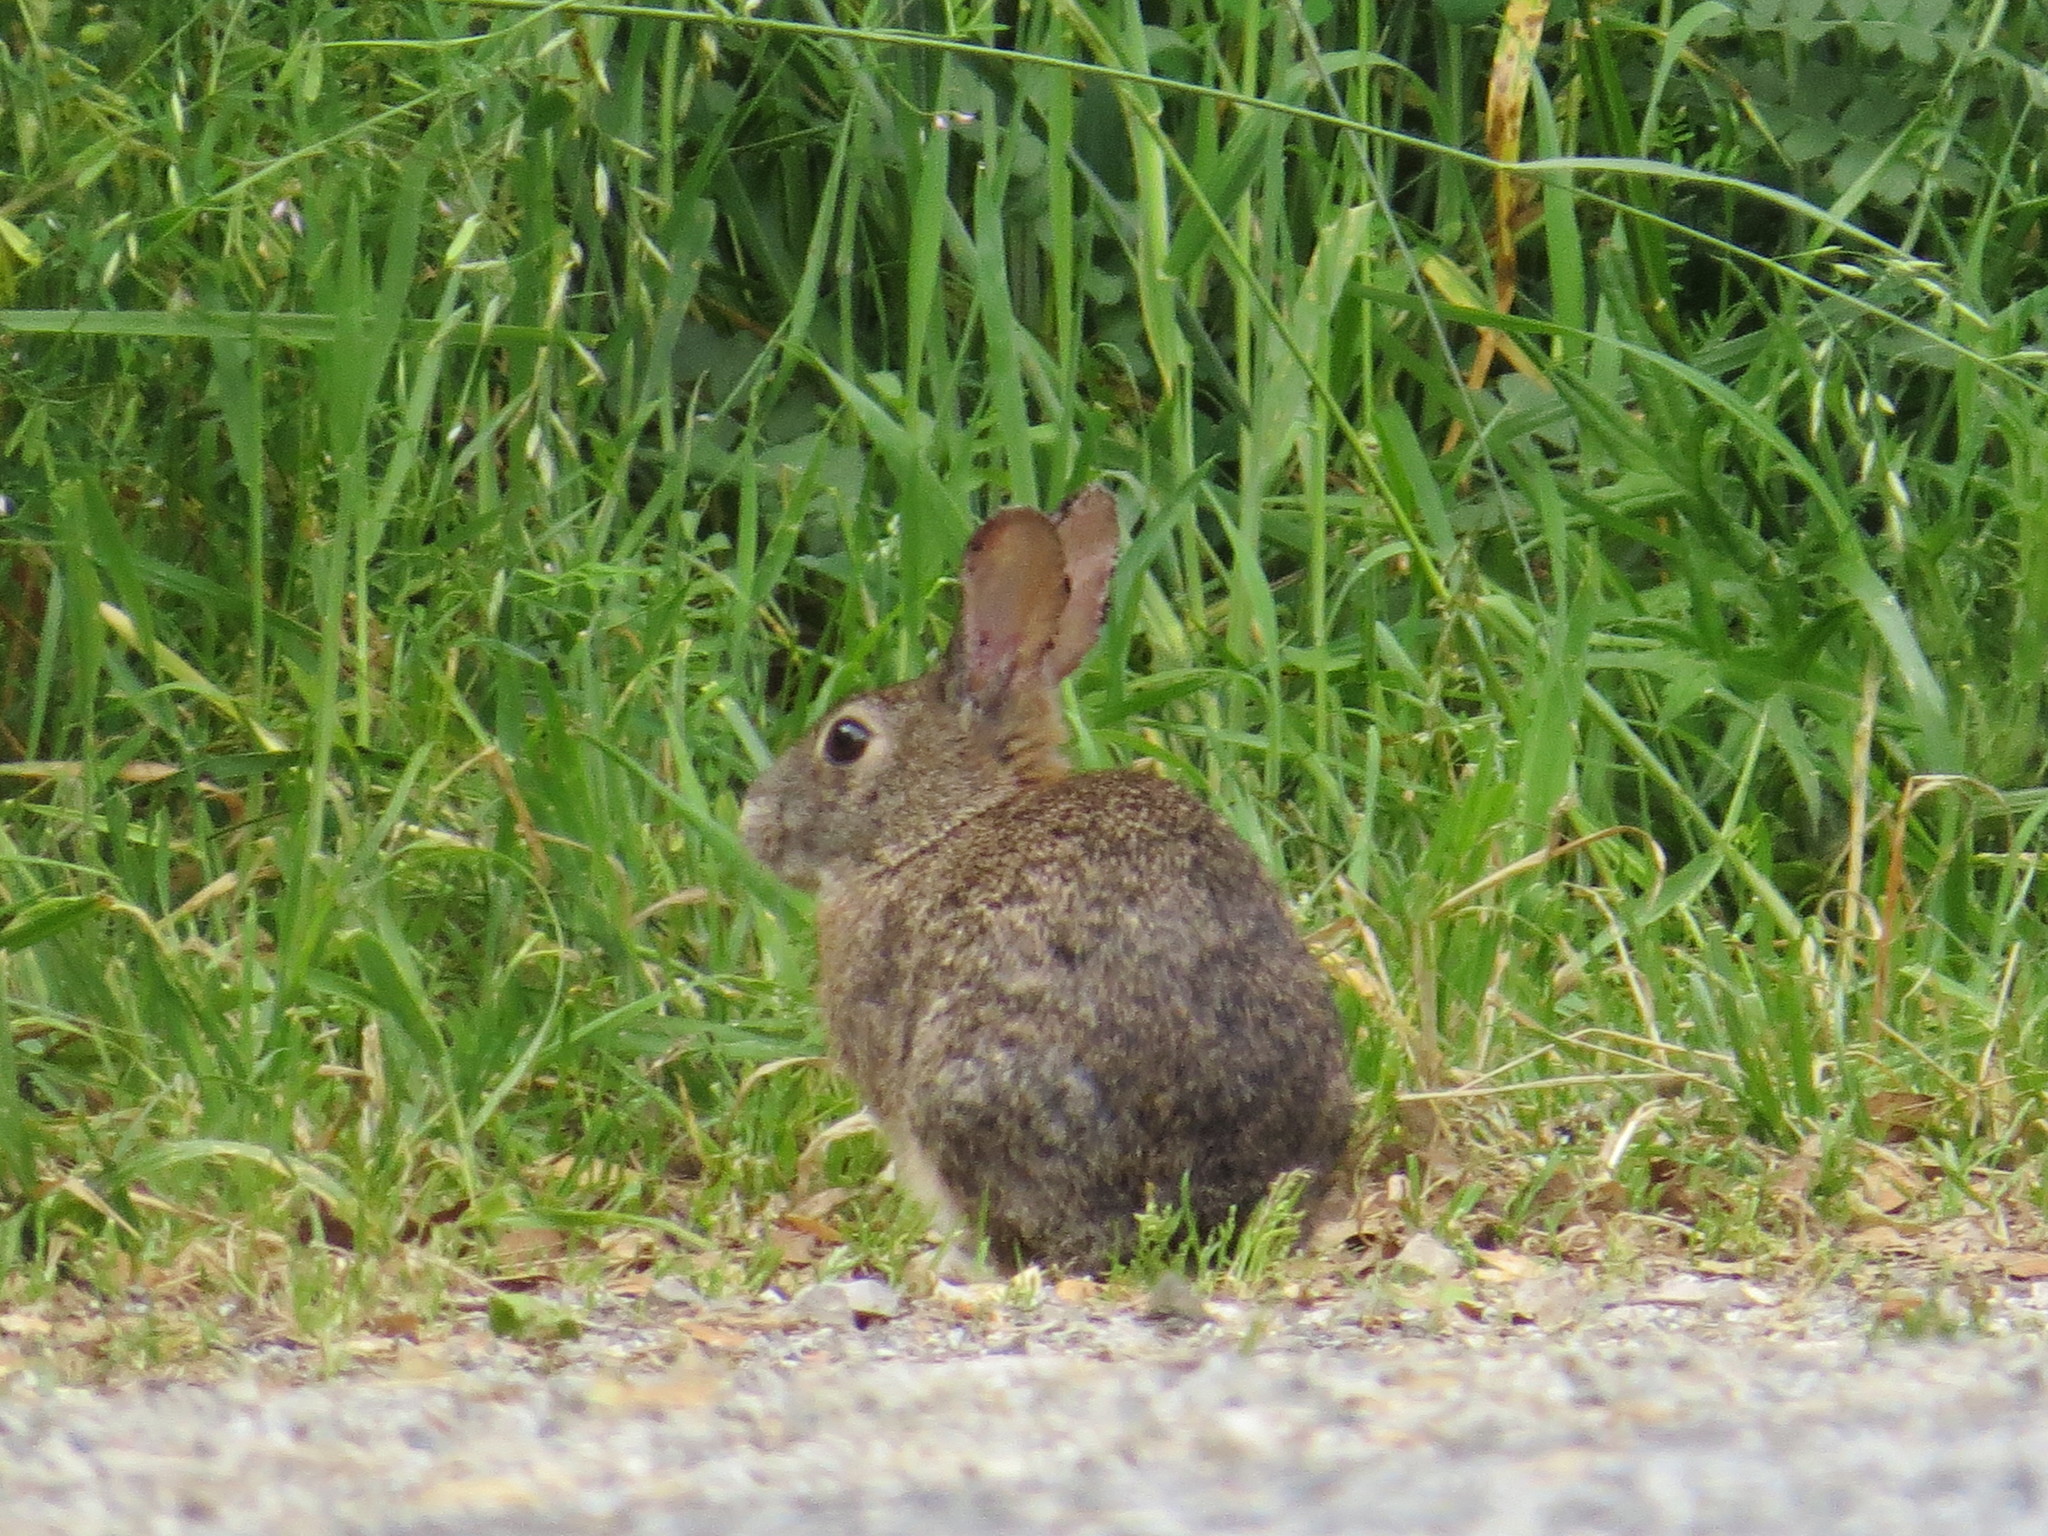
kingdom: Animalia
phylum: Chordata
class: Mammalia
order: Lagomorpha
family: Leporidae
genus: Sylvilagus
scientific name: Sylvilagus bachmani
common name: Brush rabbit
